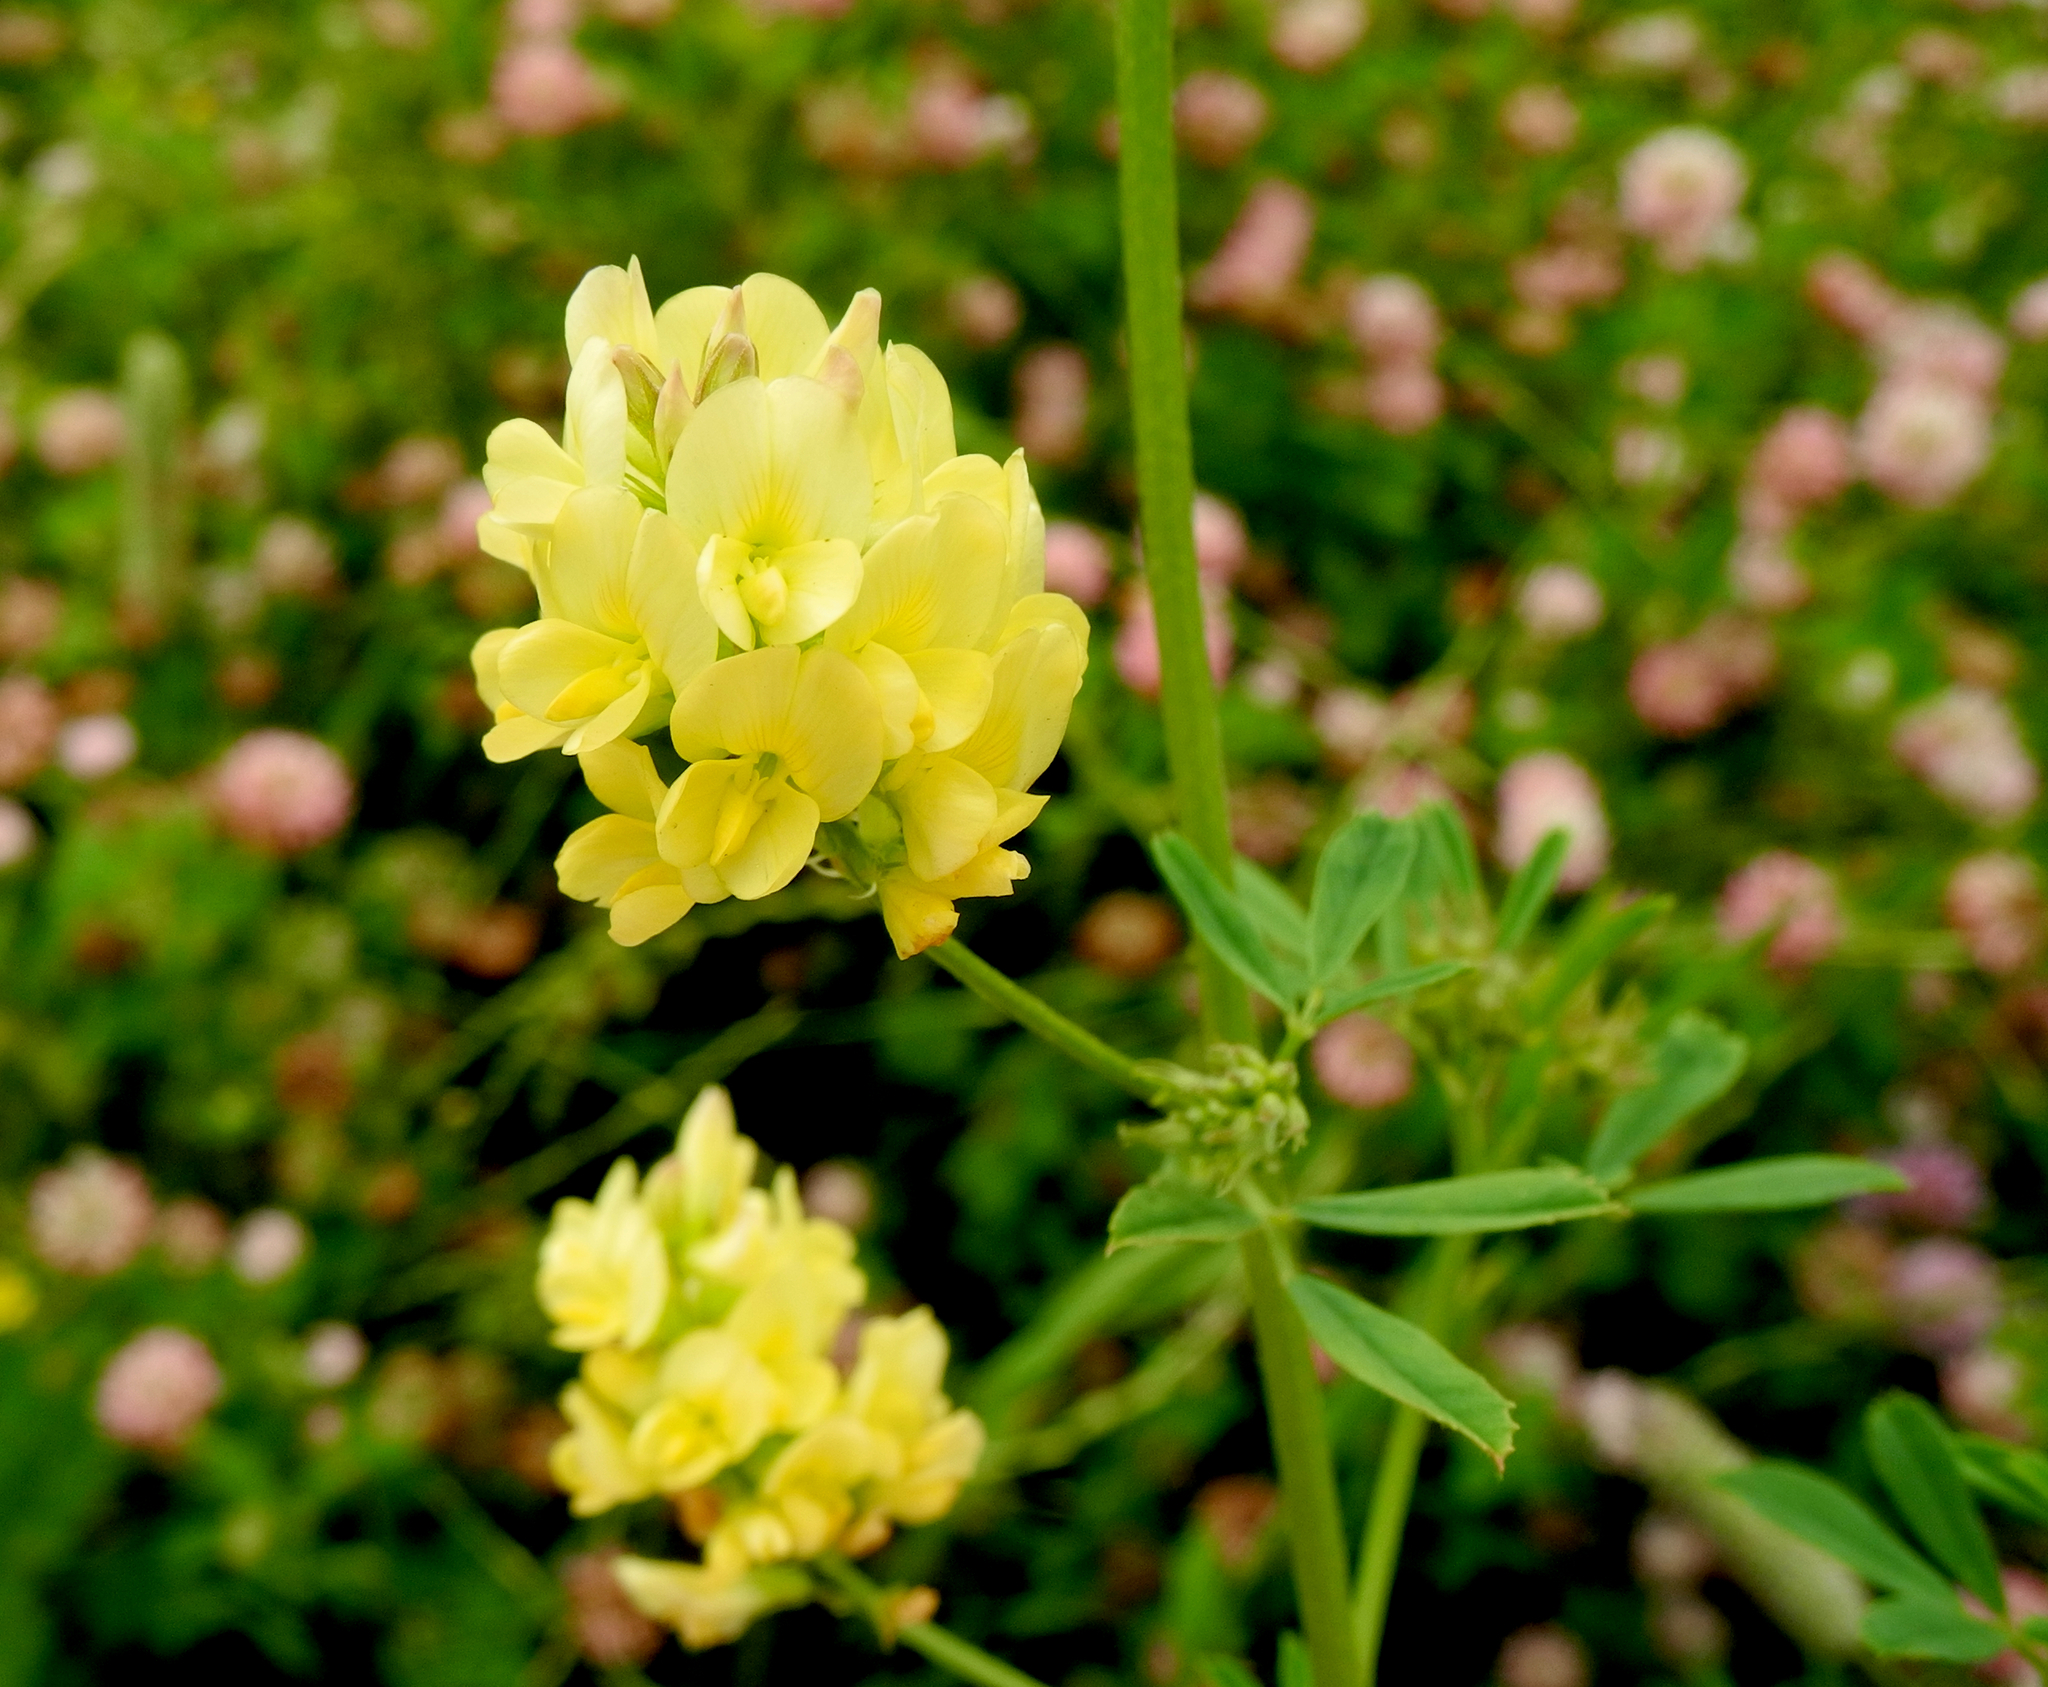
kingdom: Plantae
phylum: Tracheophyta
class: Magnoliopsida
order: Fabales
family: Fabaceae
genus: Medicago
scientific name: Medicago varia
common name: Sand lucerne
